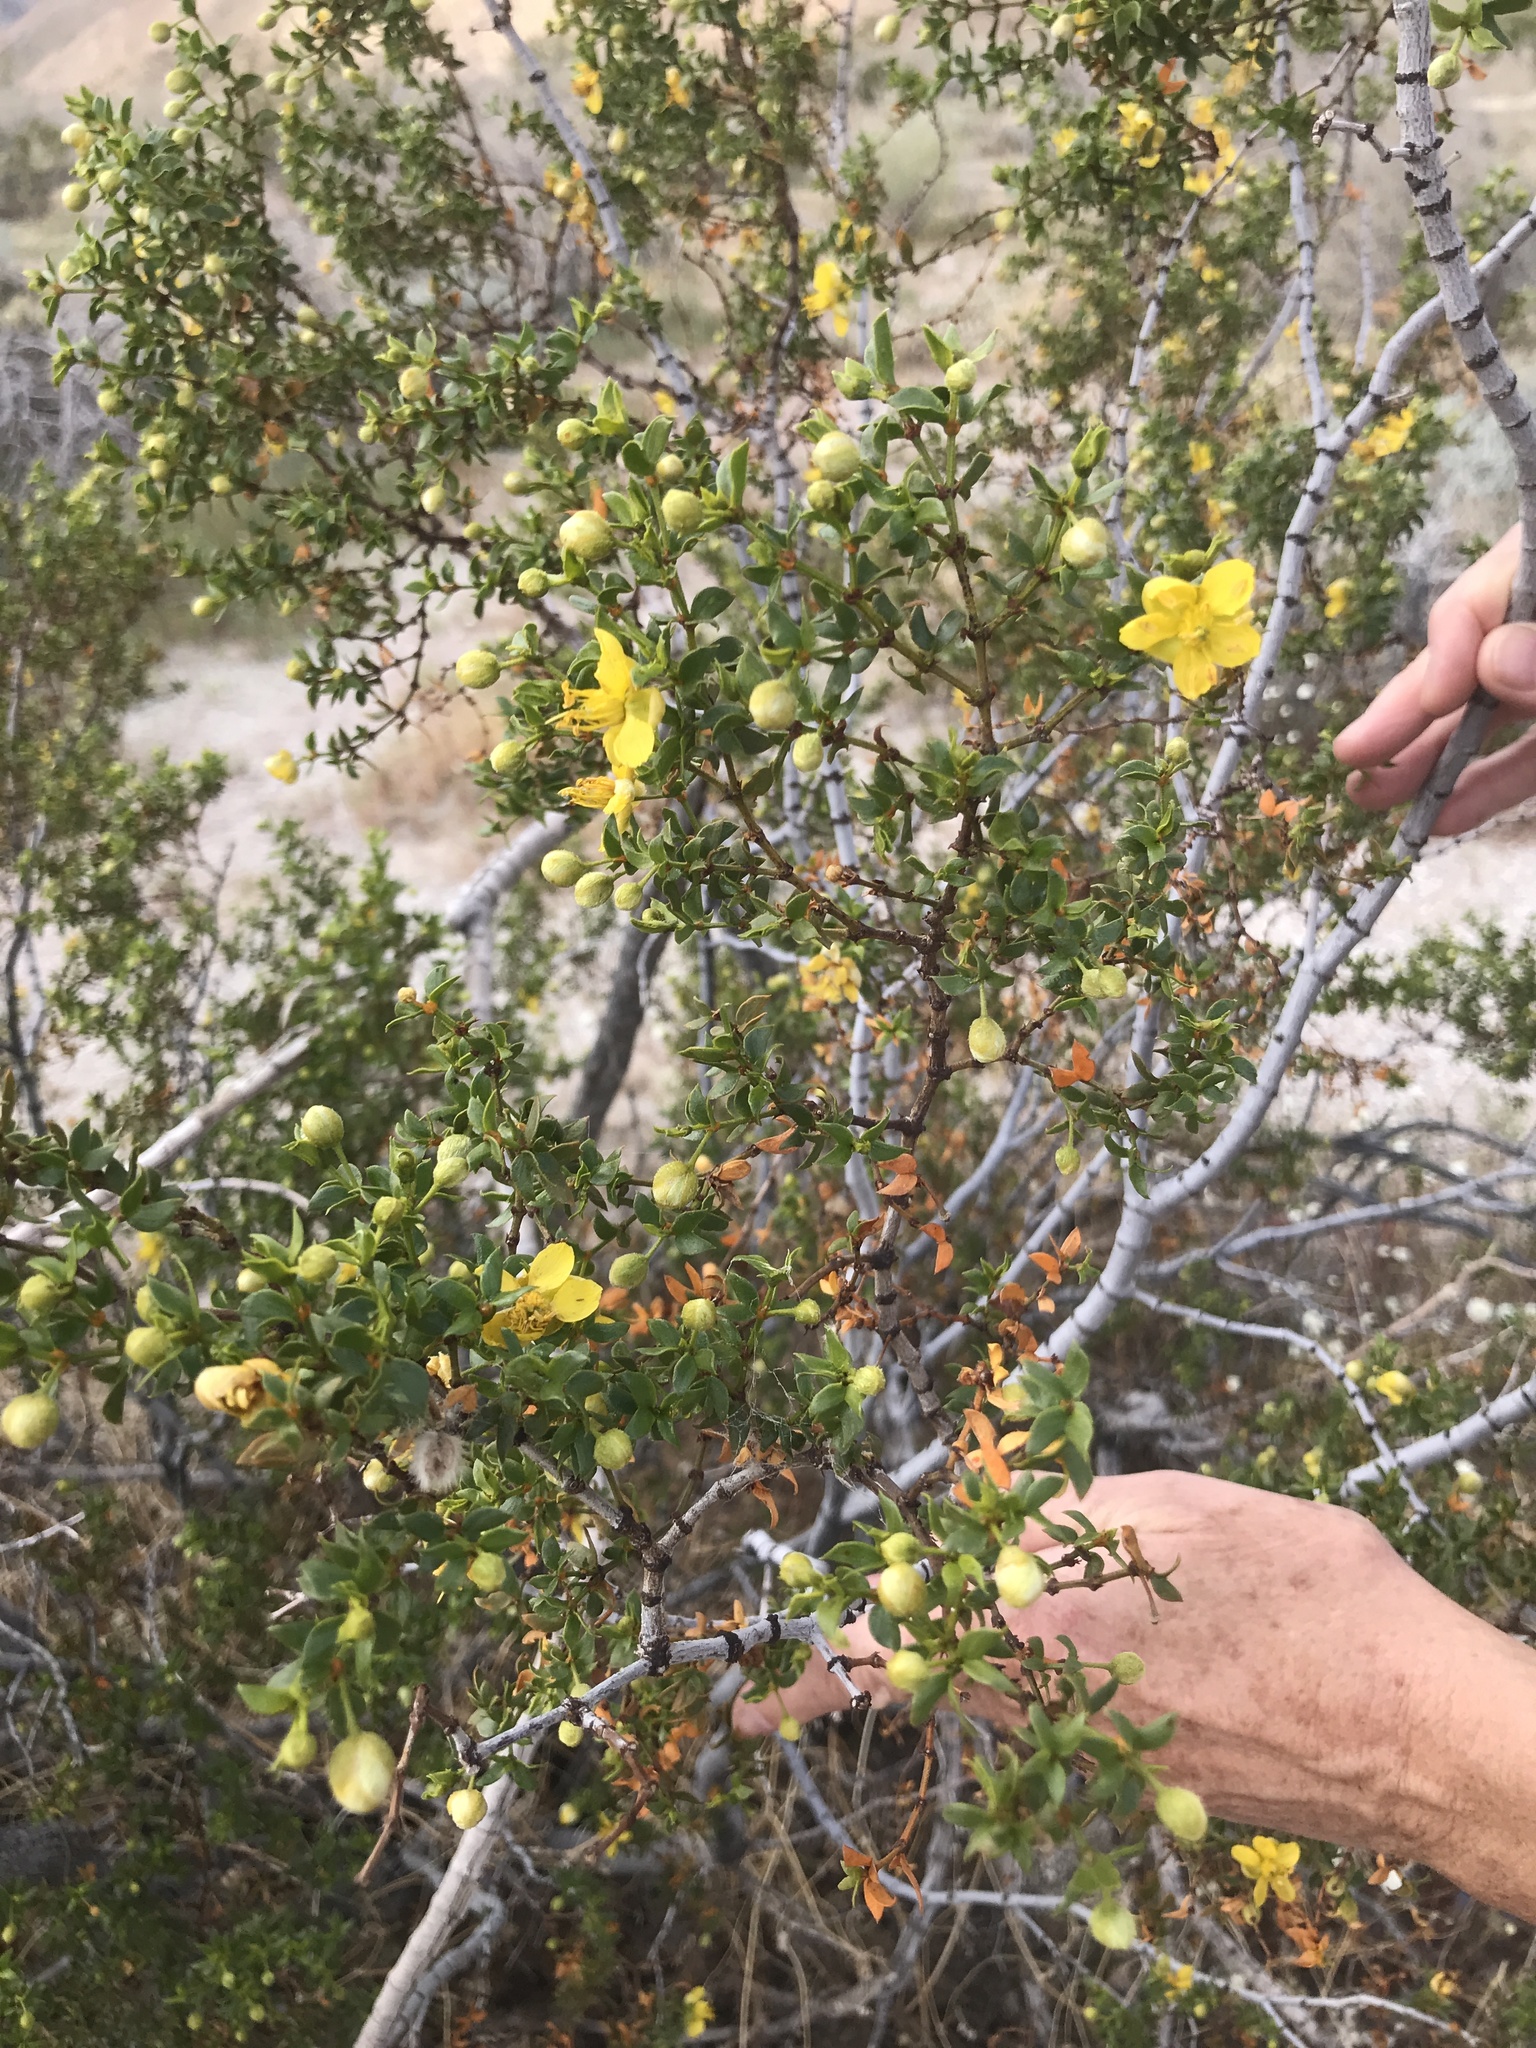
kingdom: Plantae
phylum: Tracheophyta
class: Magnoliopsida
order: Zygophyllales
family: Zygophyllaceae
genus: Larrea
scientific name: Larrea tridentata
